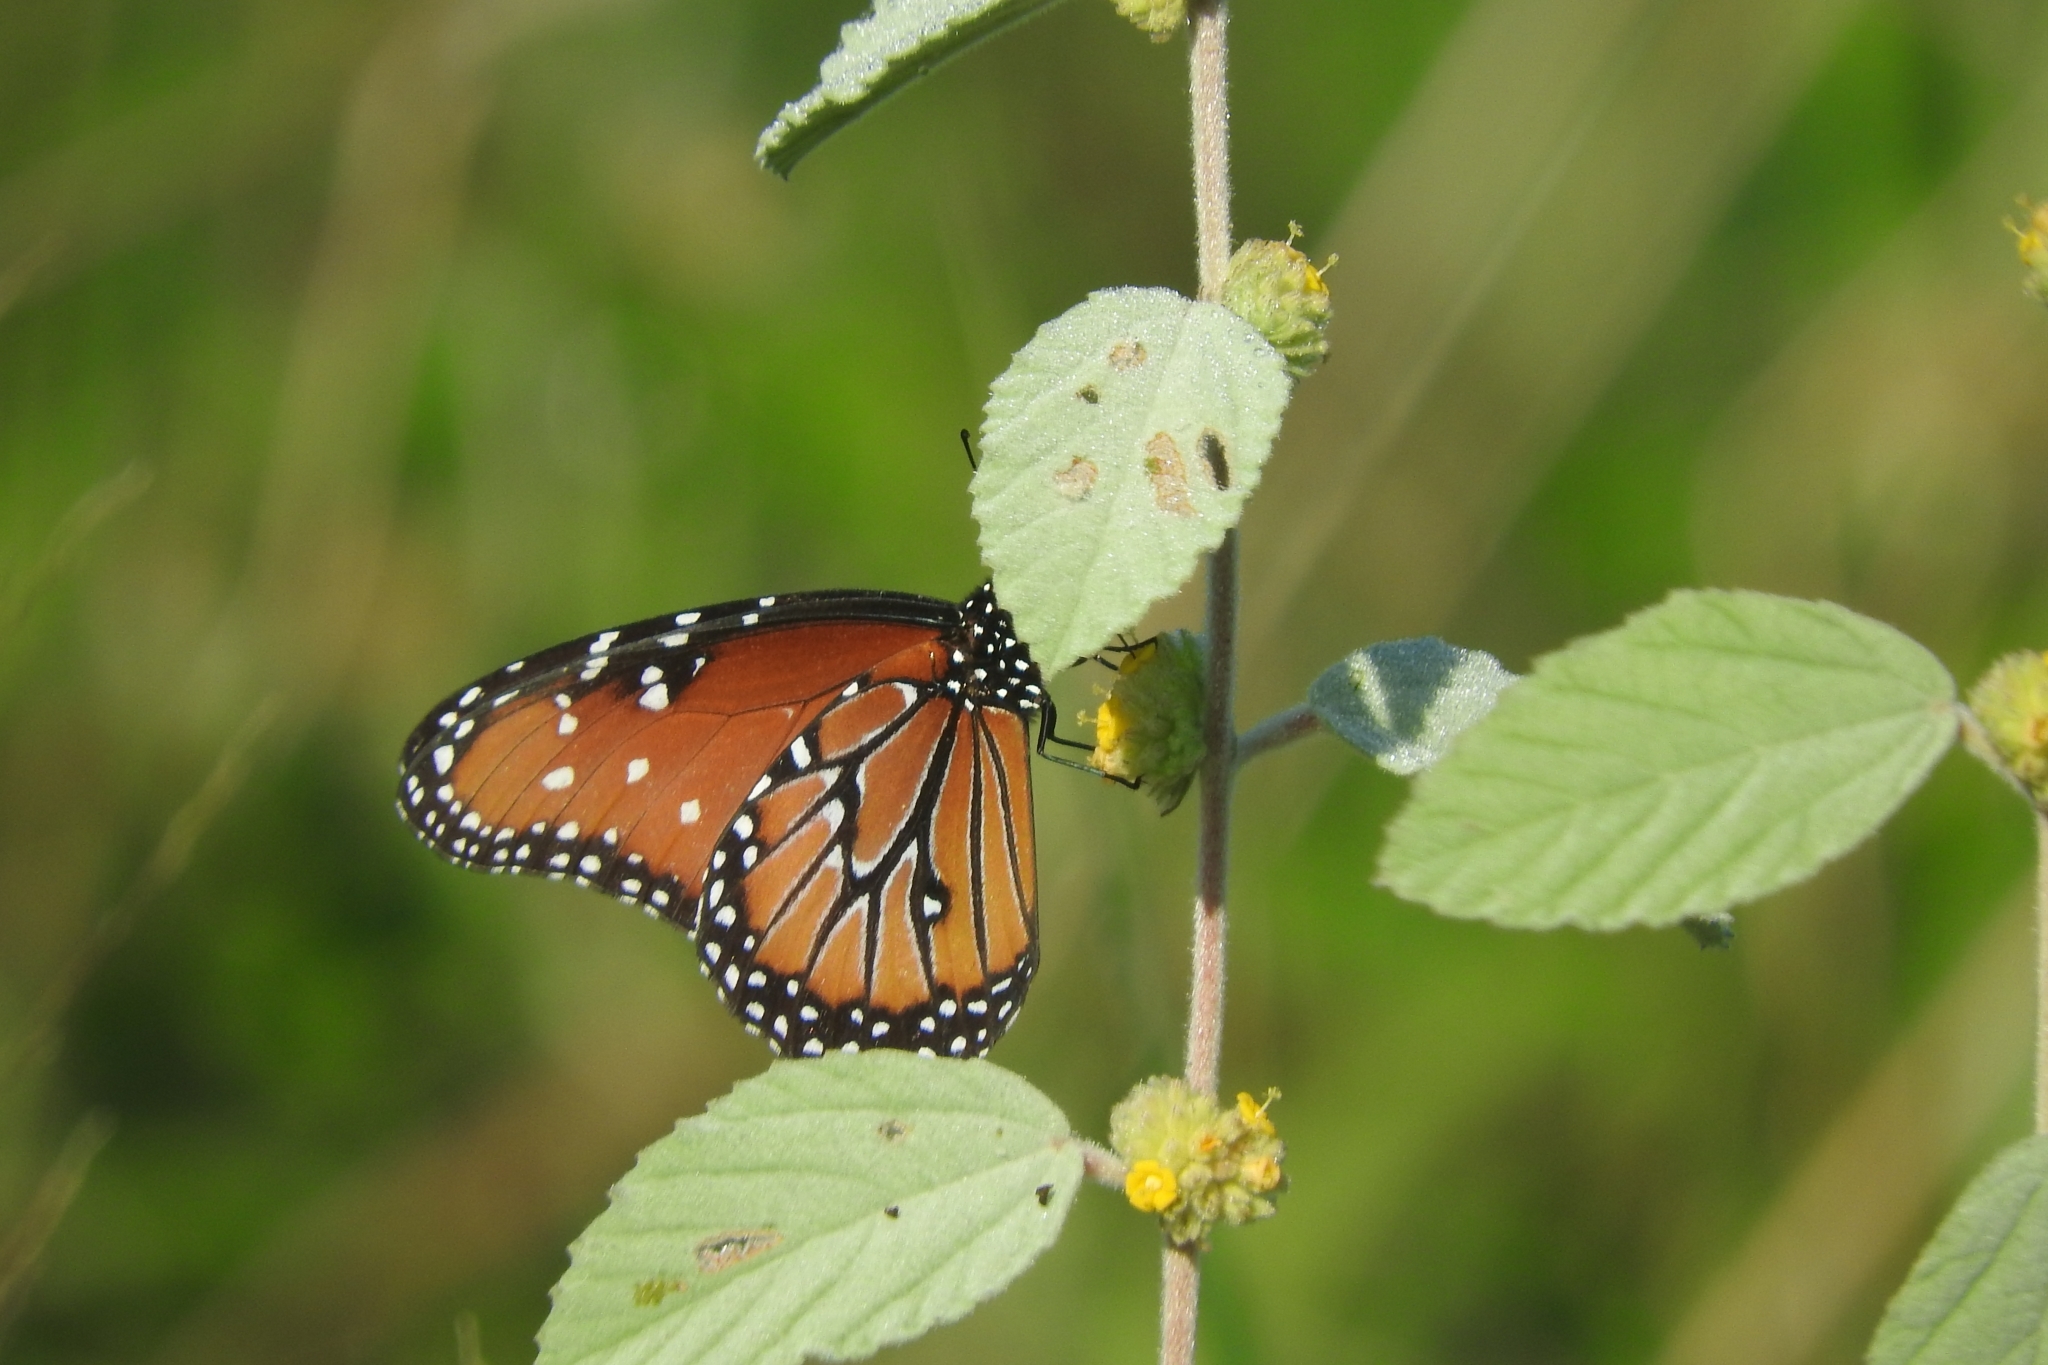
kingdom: Animalia
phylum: Arthropoda
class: Insecta
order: Lepidoptera
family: Nymphalidae
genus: Danaus
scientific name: Danaus gilippus
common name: Queen
